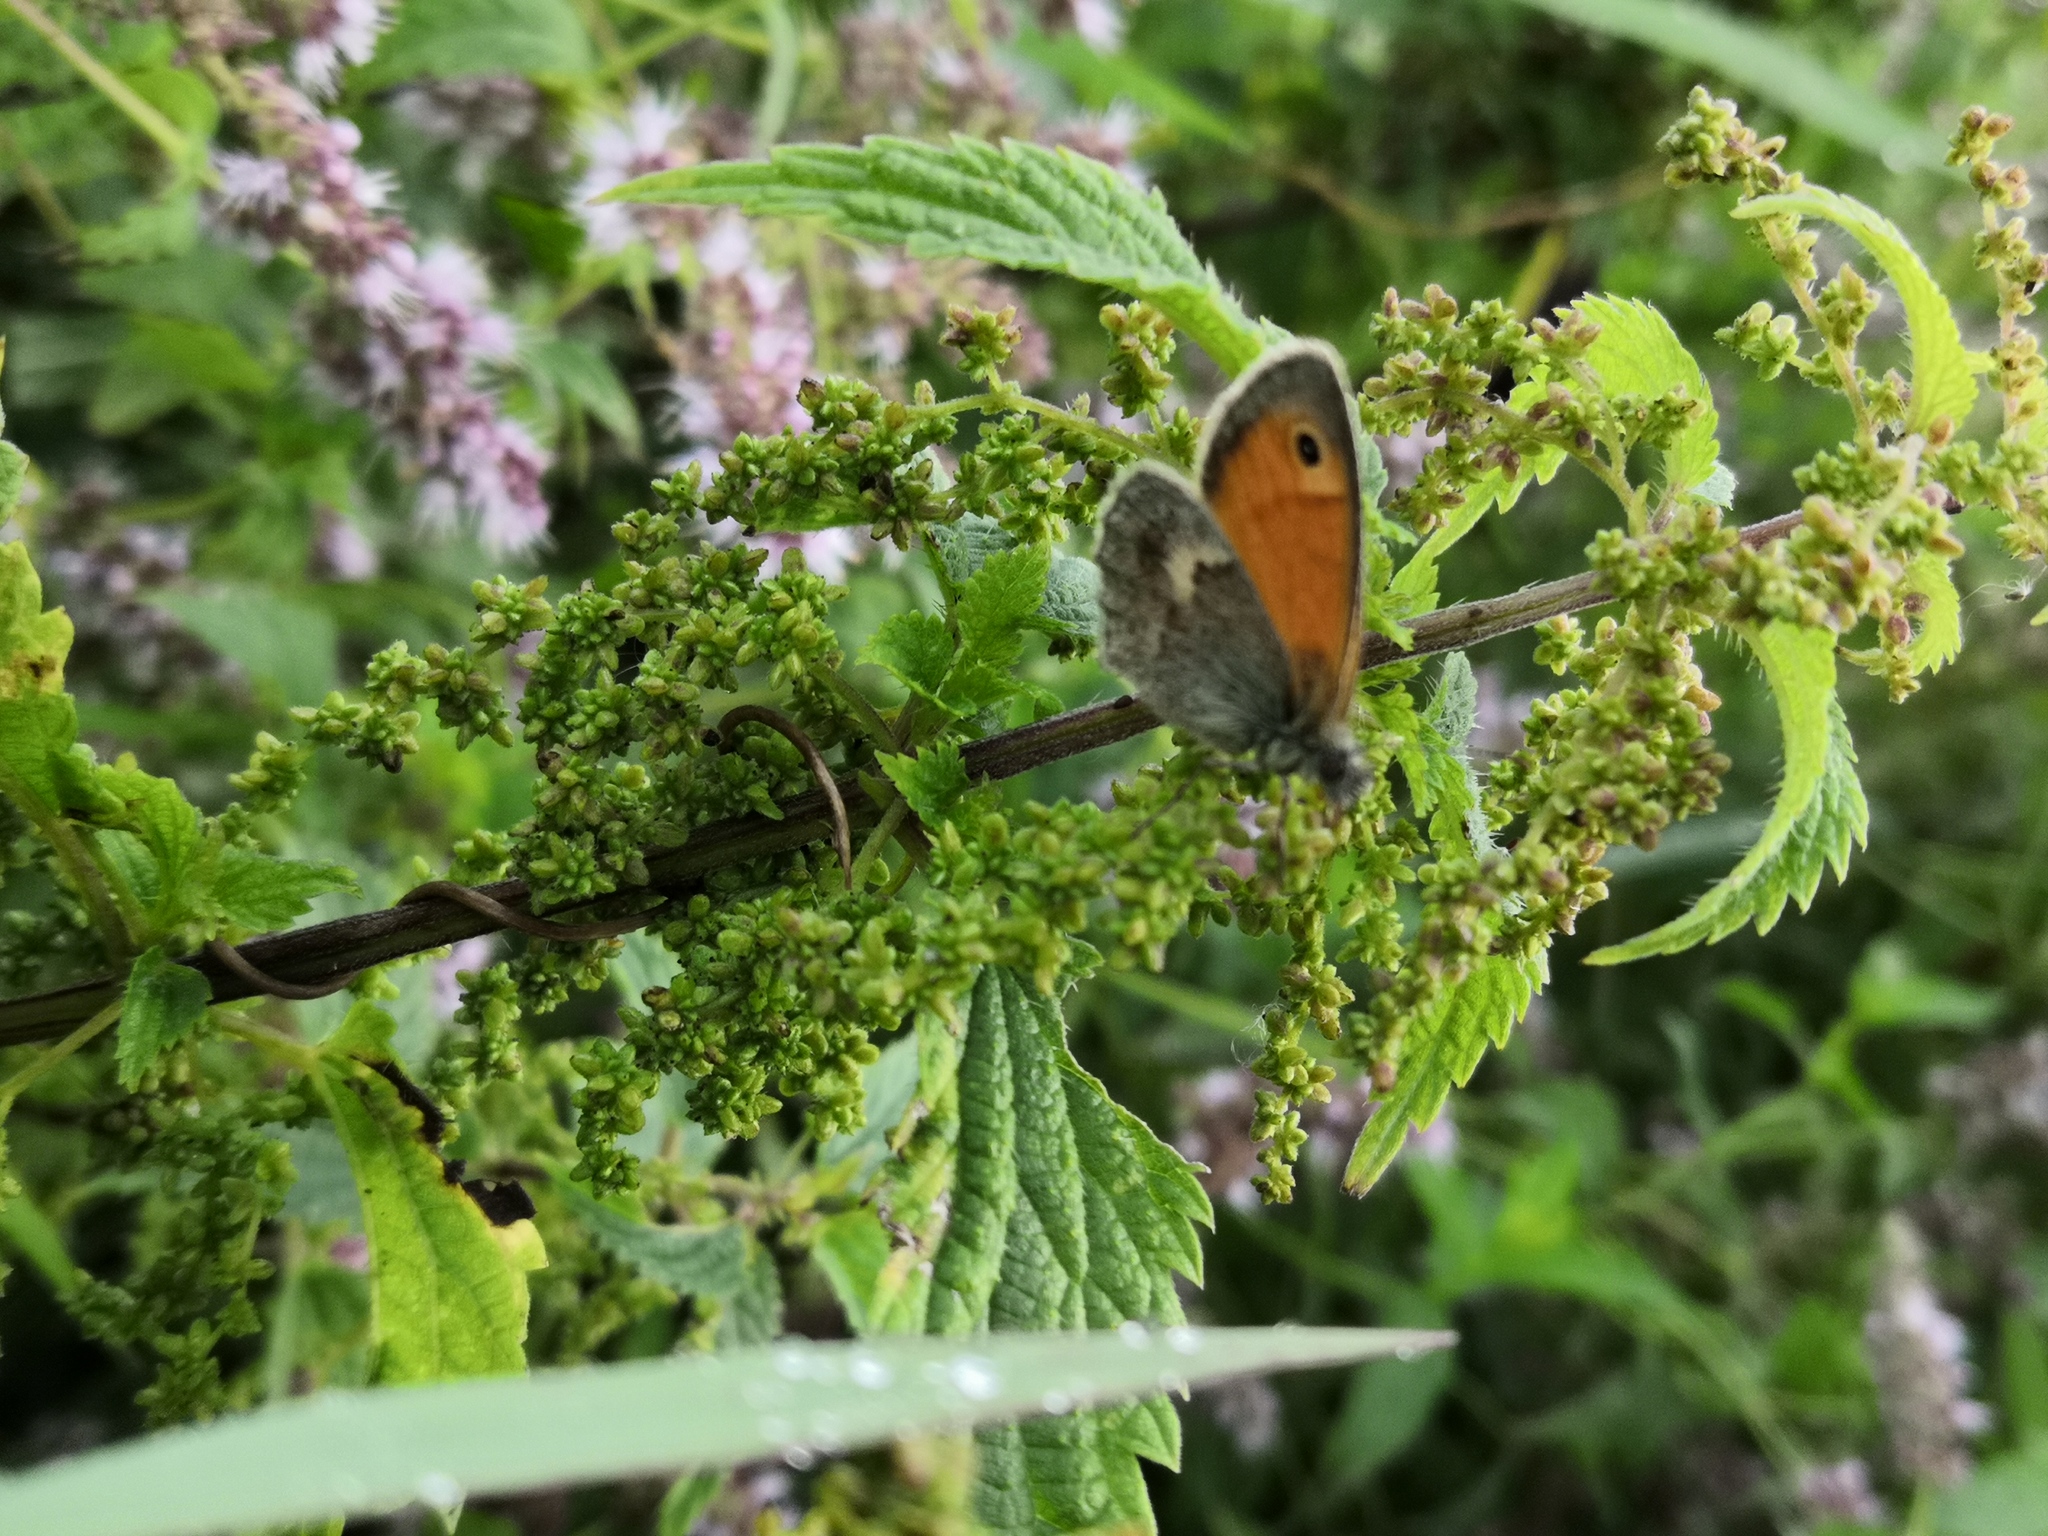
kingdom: Animalia
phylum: Arthropoda
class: Insecta
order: Lepidoptera
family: Nymphalidae
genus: Coenonympha
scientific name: Coenonympha pamphilus
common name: Small heath
